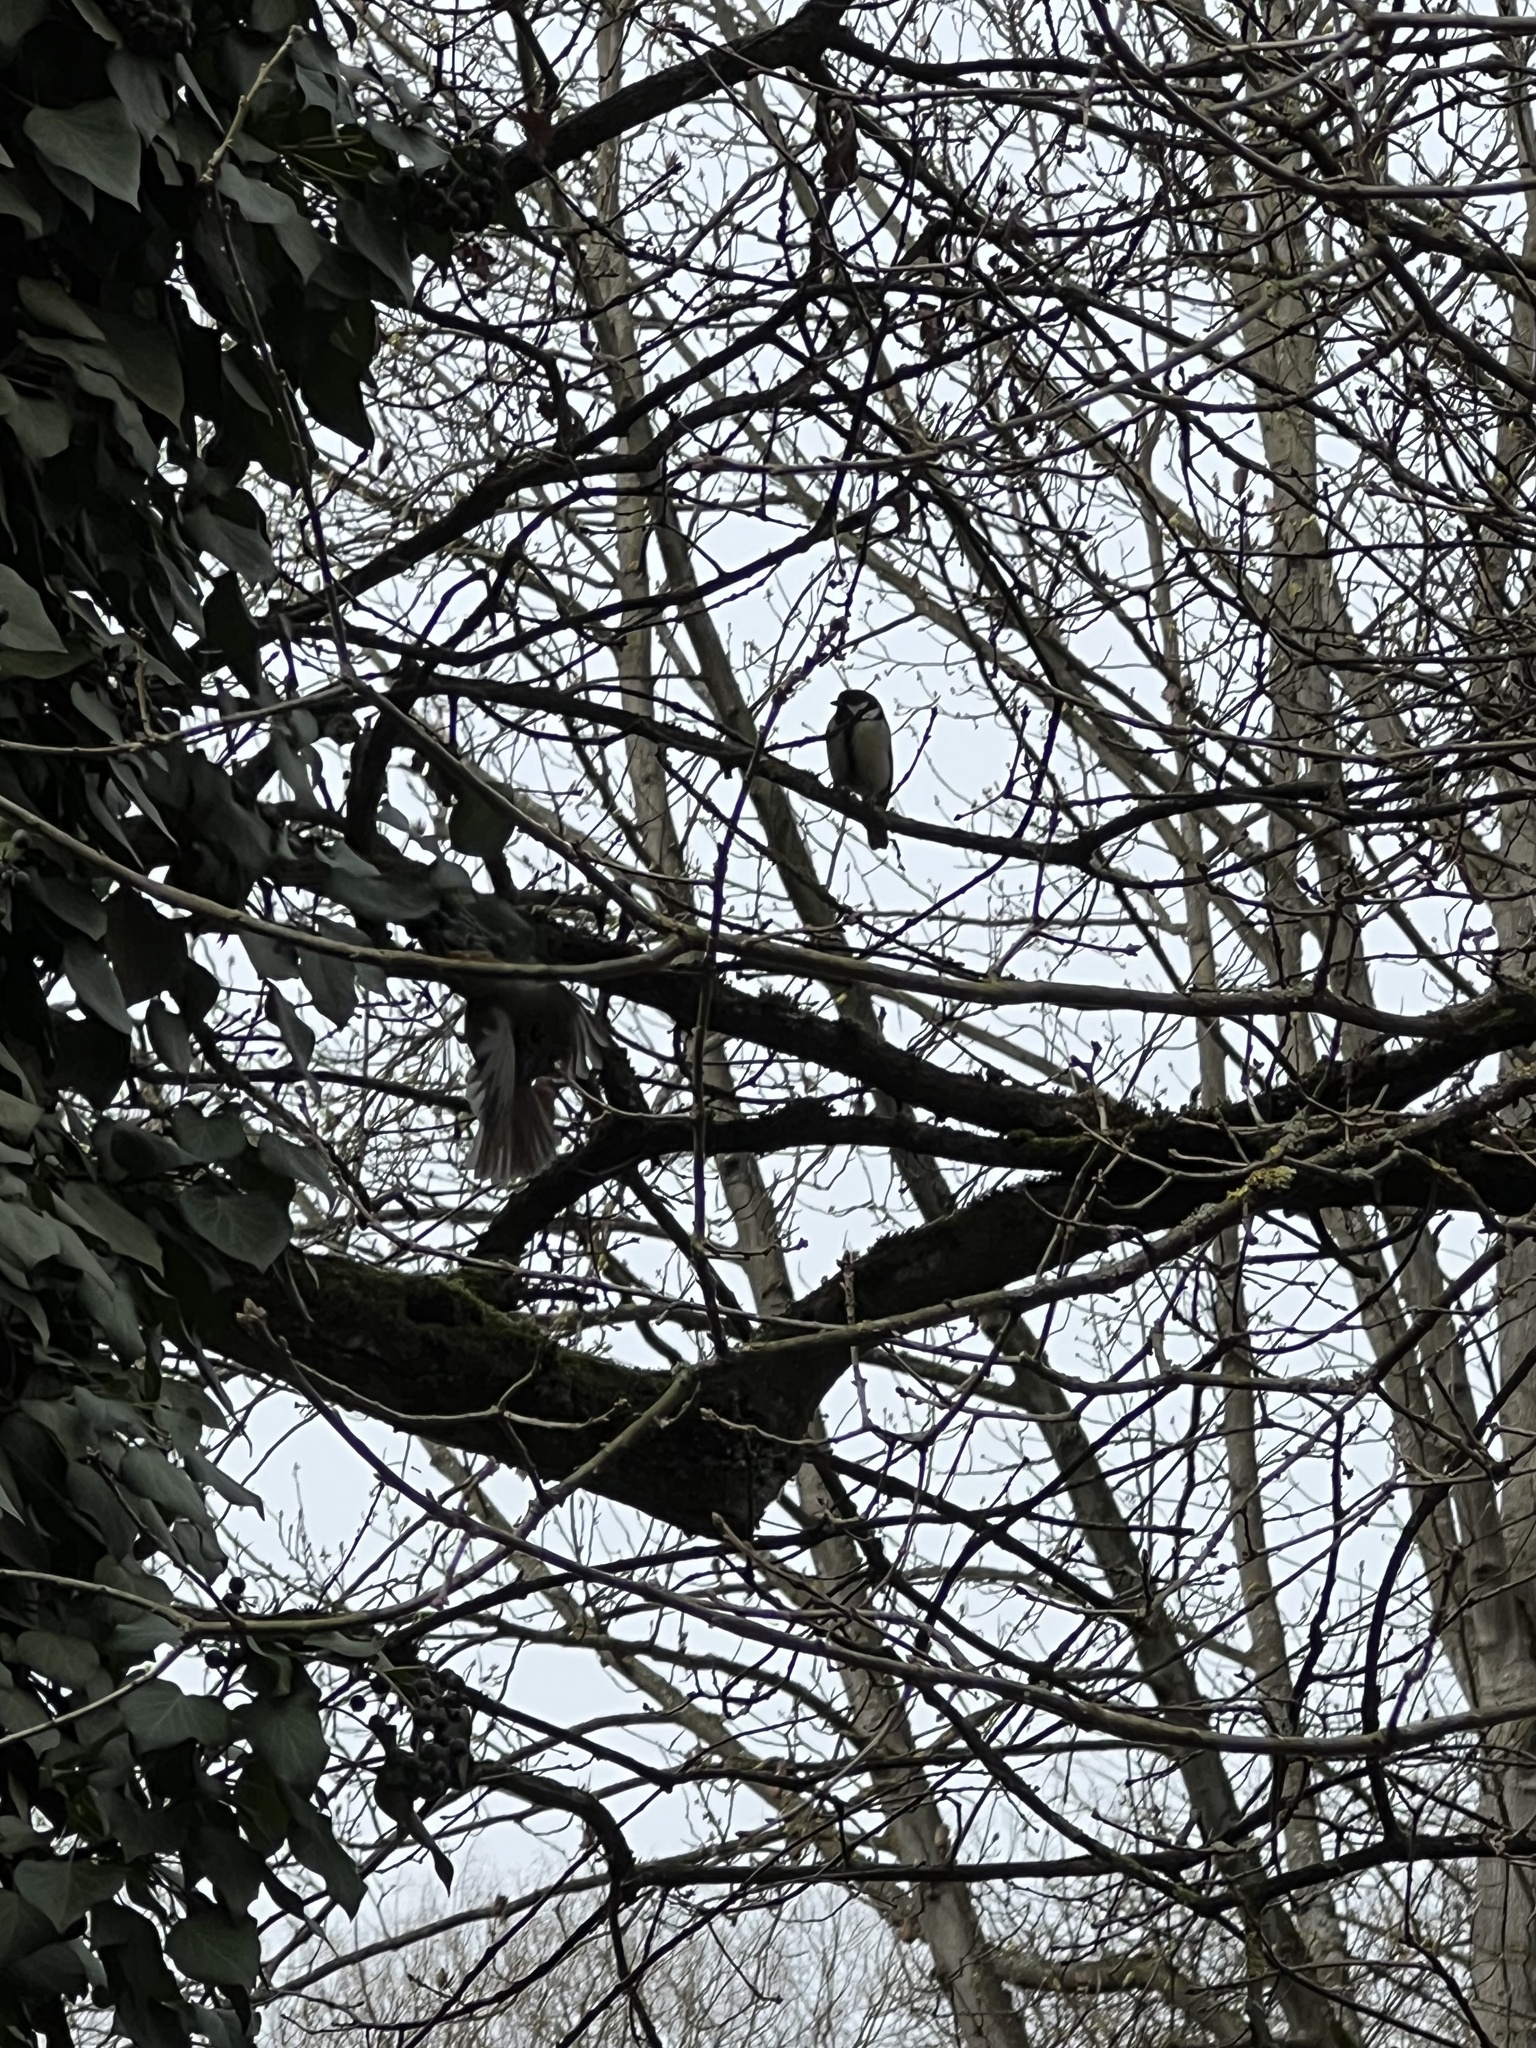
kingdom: Animalia
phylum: Chordata
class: Aves
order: Passeriformes
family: Paridae
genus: Parus
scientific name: Parus major
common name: Great tit
